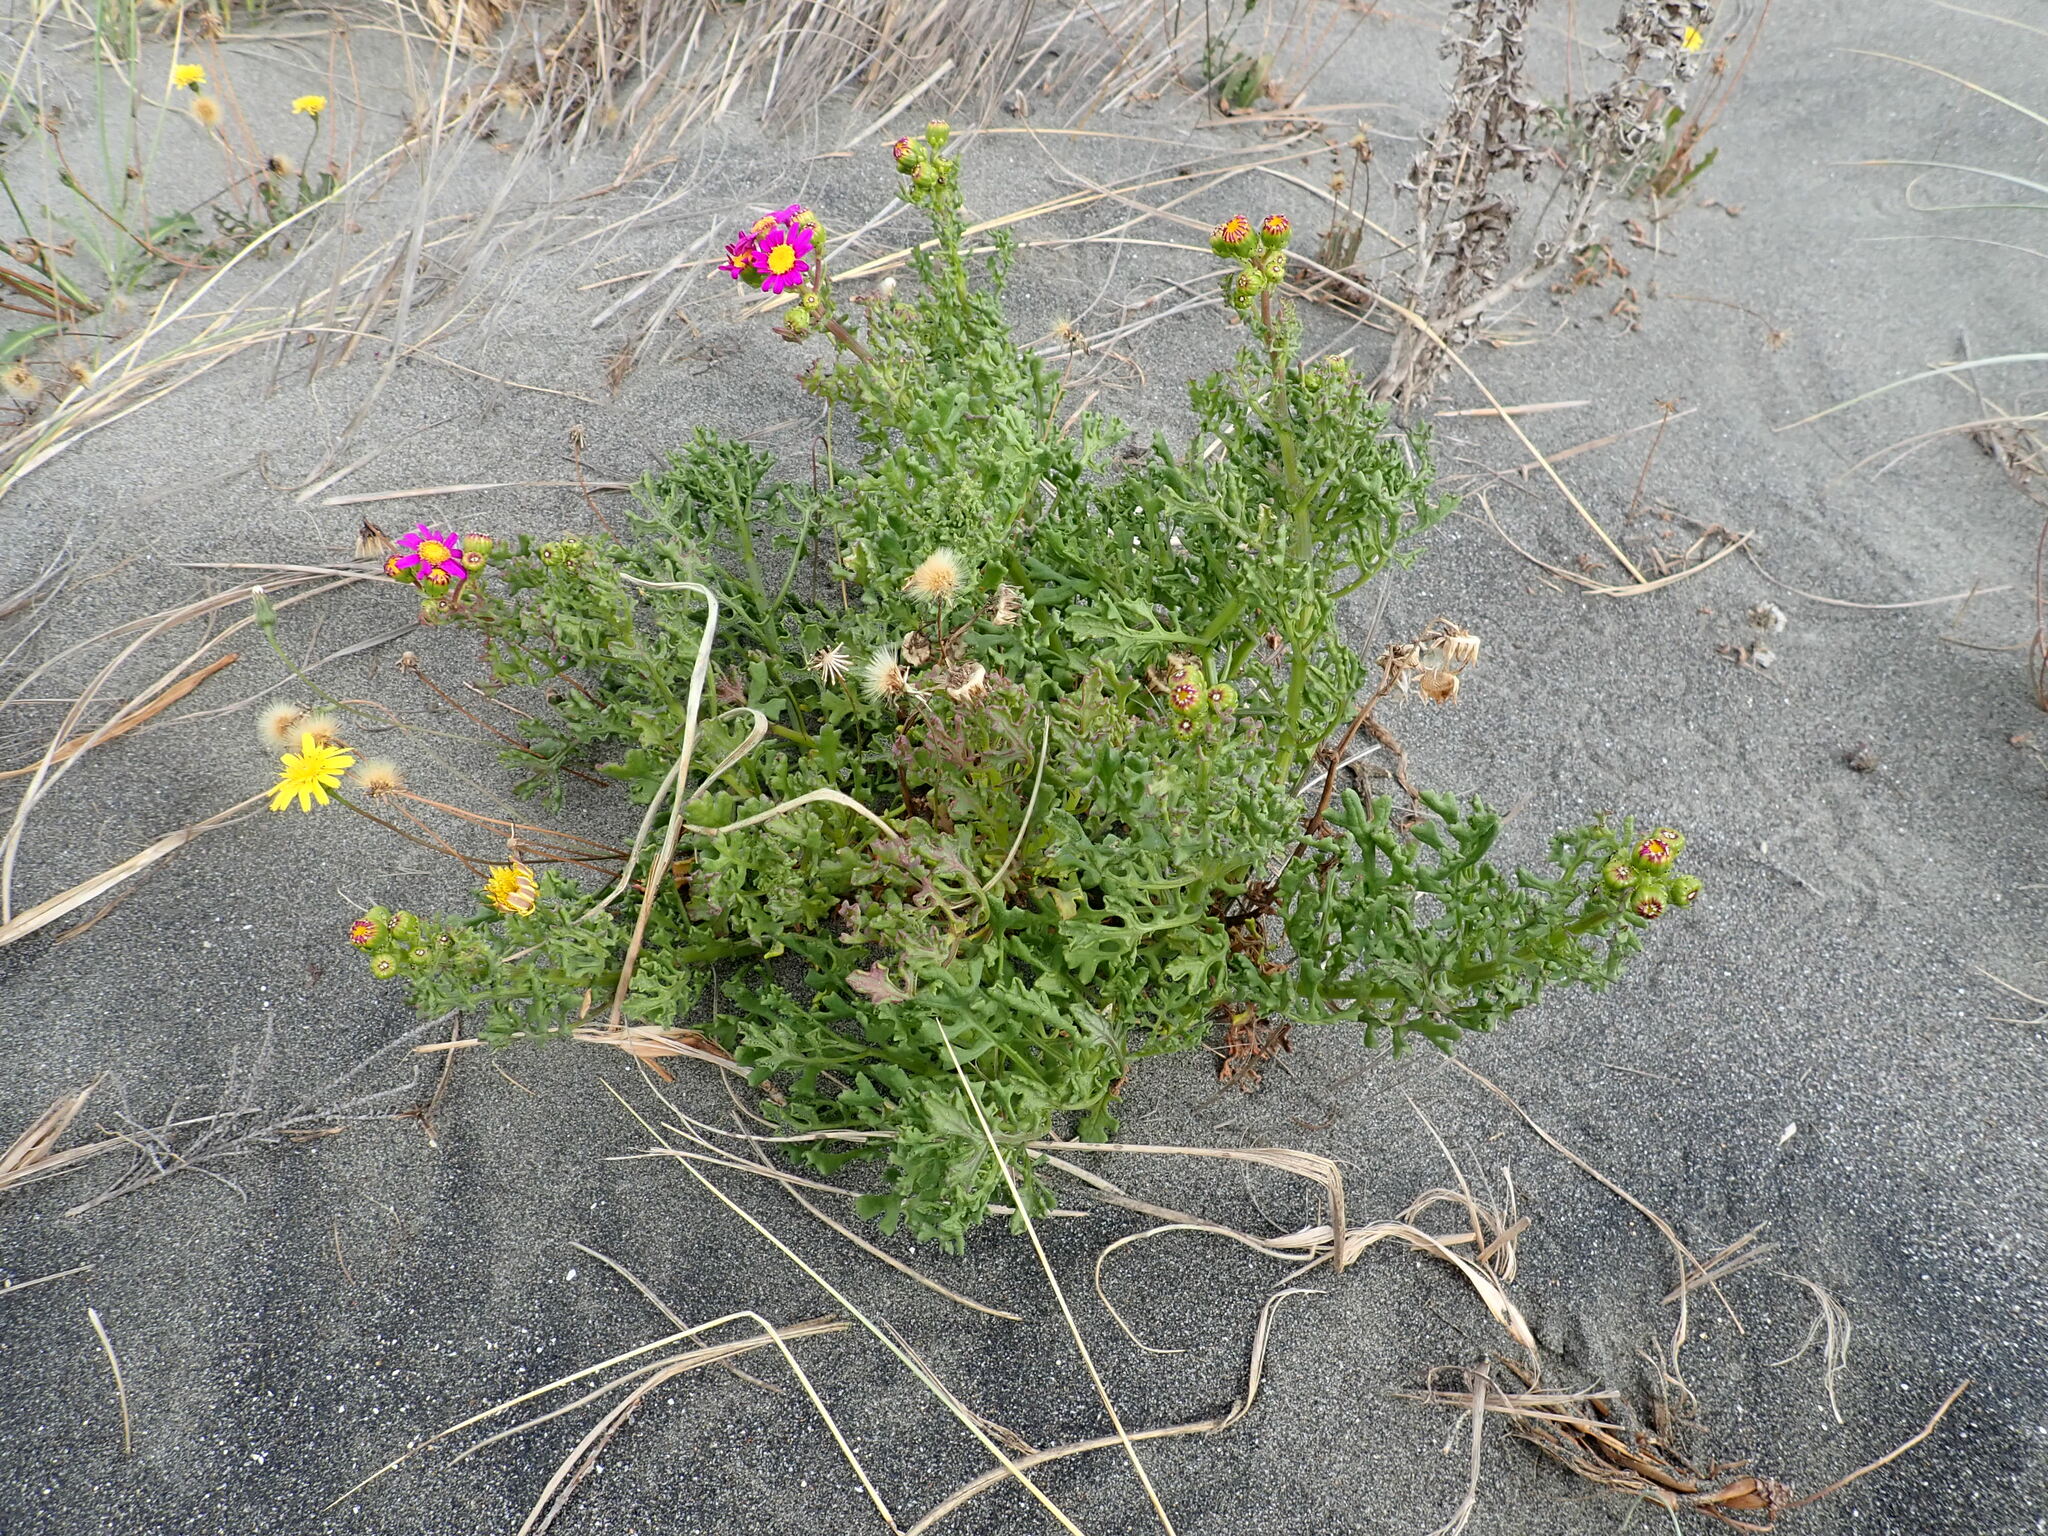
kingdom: Plantae
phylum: Tracheophyta
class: Magnoliopsida
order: Asterales
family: Asteraceae
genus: Senecio
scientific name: Senecio elegans
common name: Purple groundsel
